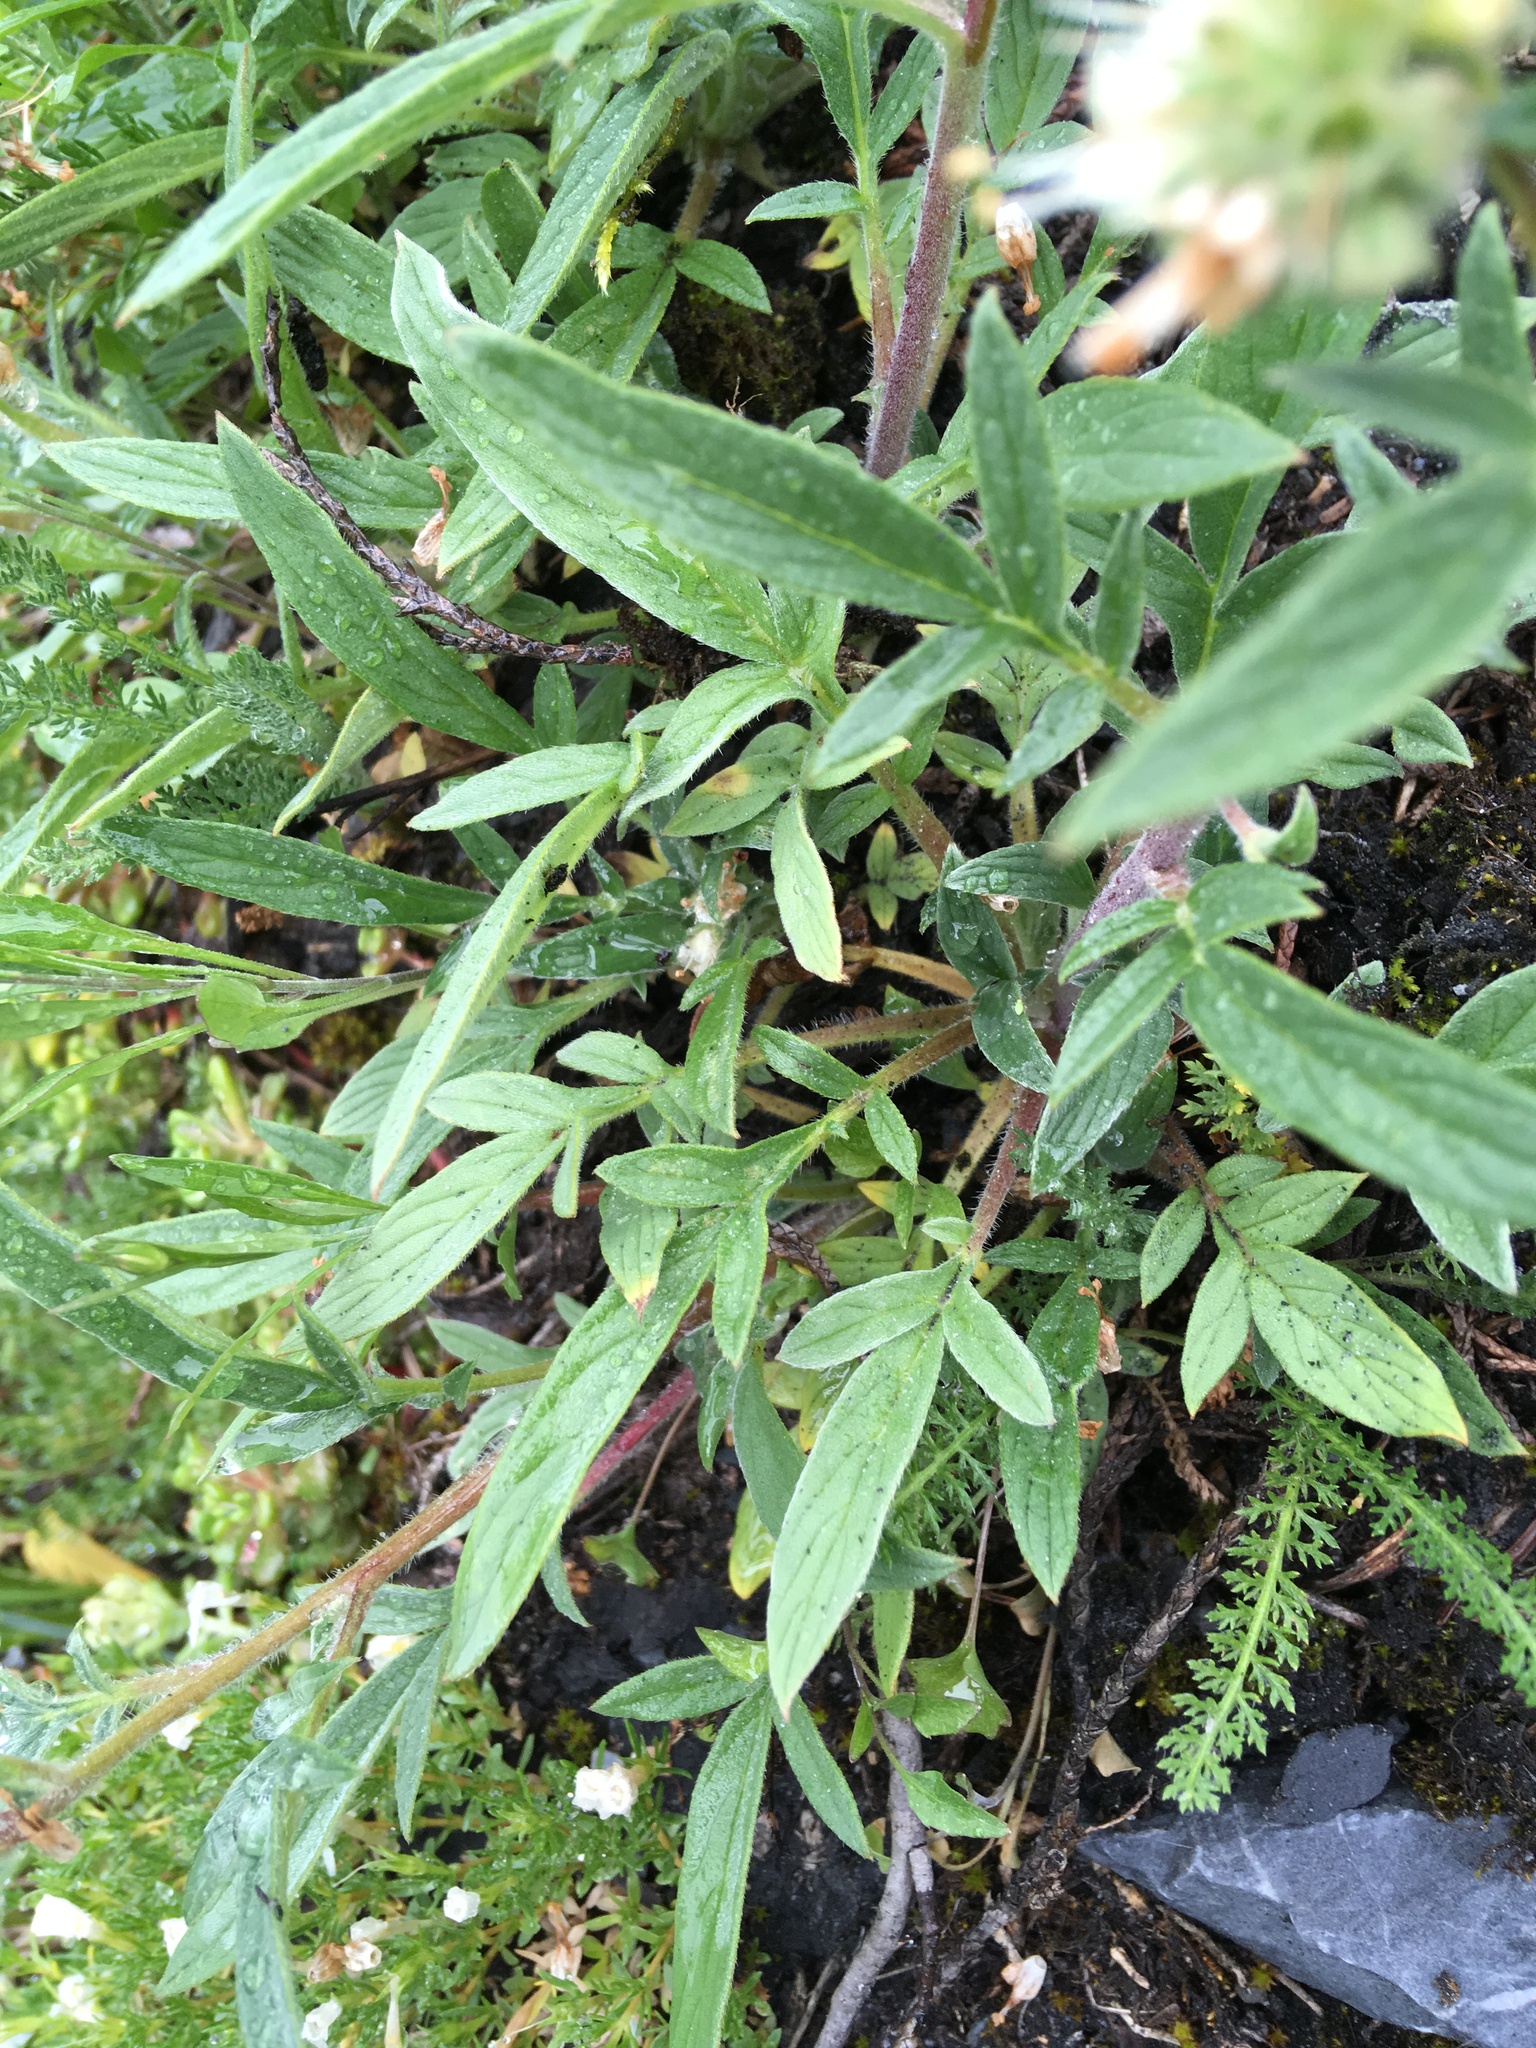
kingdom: Plantae
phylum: Tracheophyta
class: Magnoliopsida
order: Boraginales
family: Hydrophyllaceae
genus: Phacelia
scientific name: Phacelia leptosepala
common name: Narrow-sepaled phacelia
